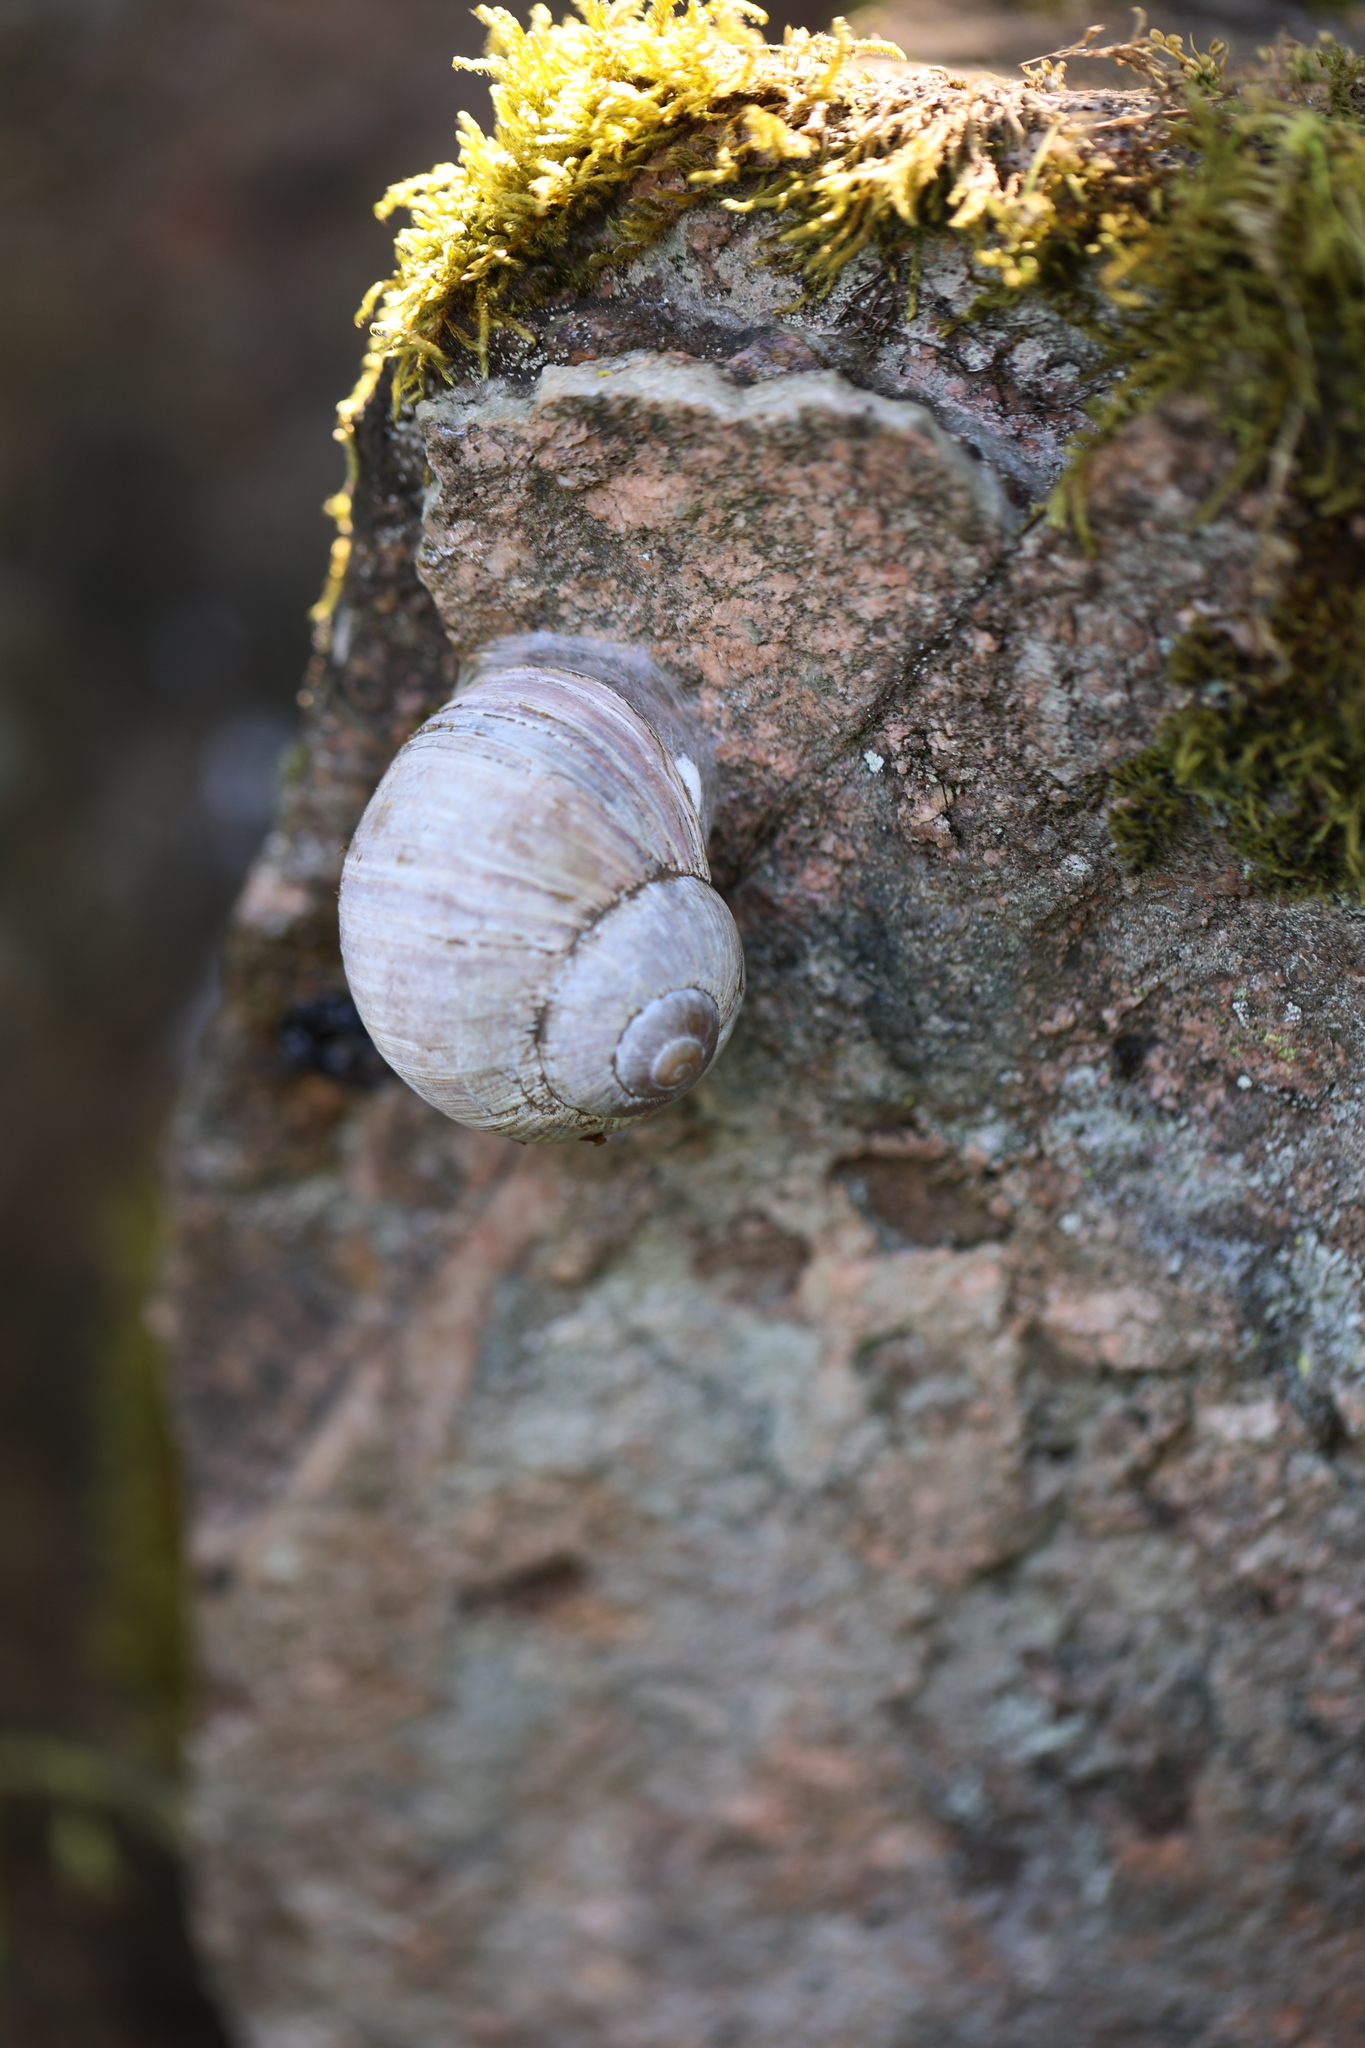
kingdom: Animalia
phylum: Mollusca
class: Gastropoda
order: Stylommatophora
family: Helicidae
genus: Helix
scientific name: Helix pomatia
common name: Roman snail
